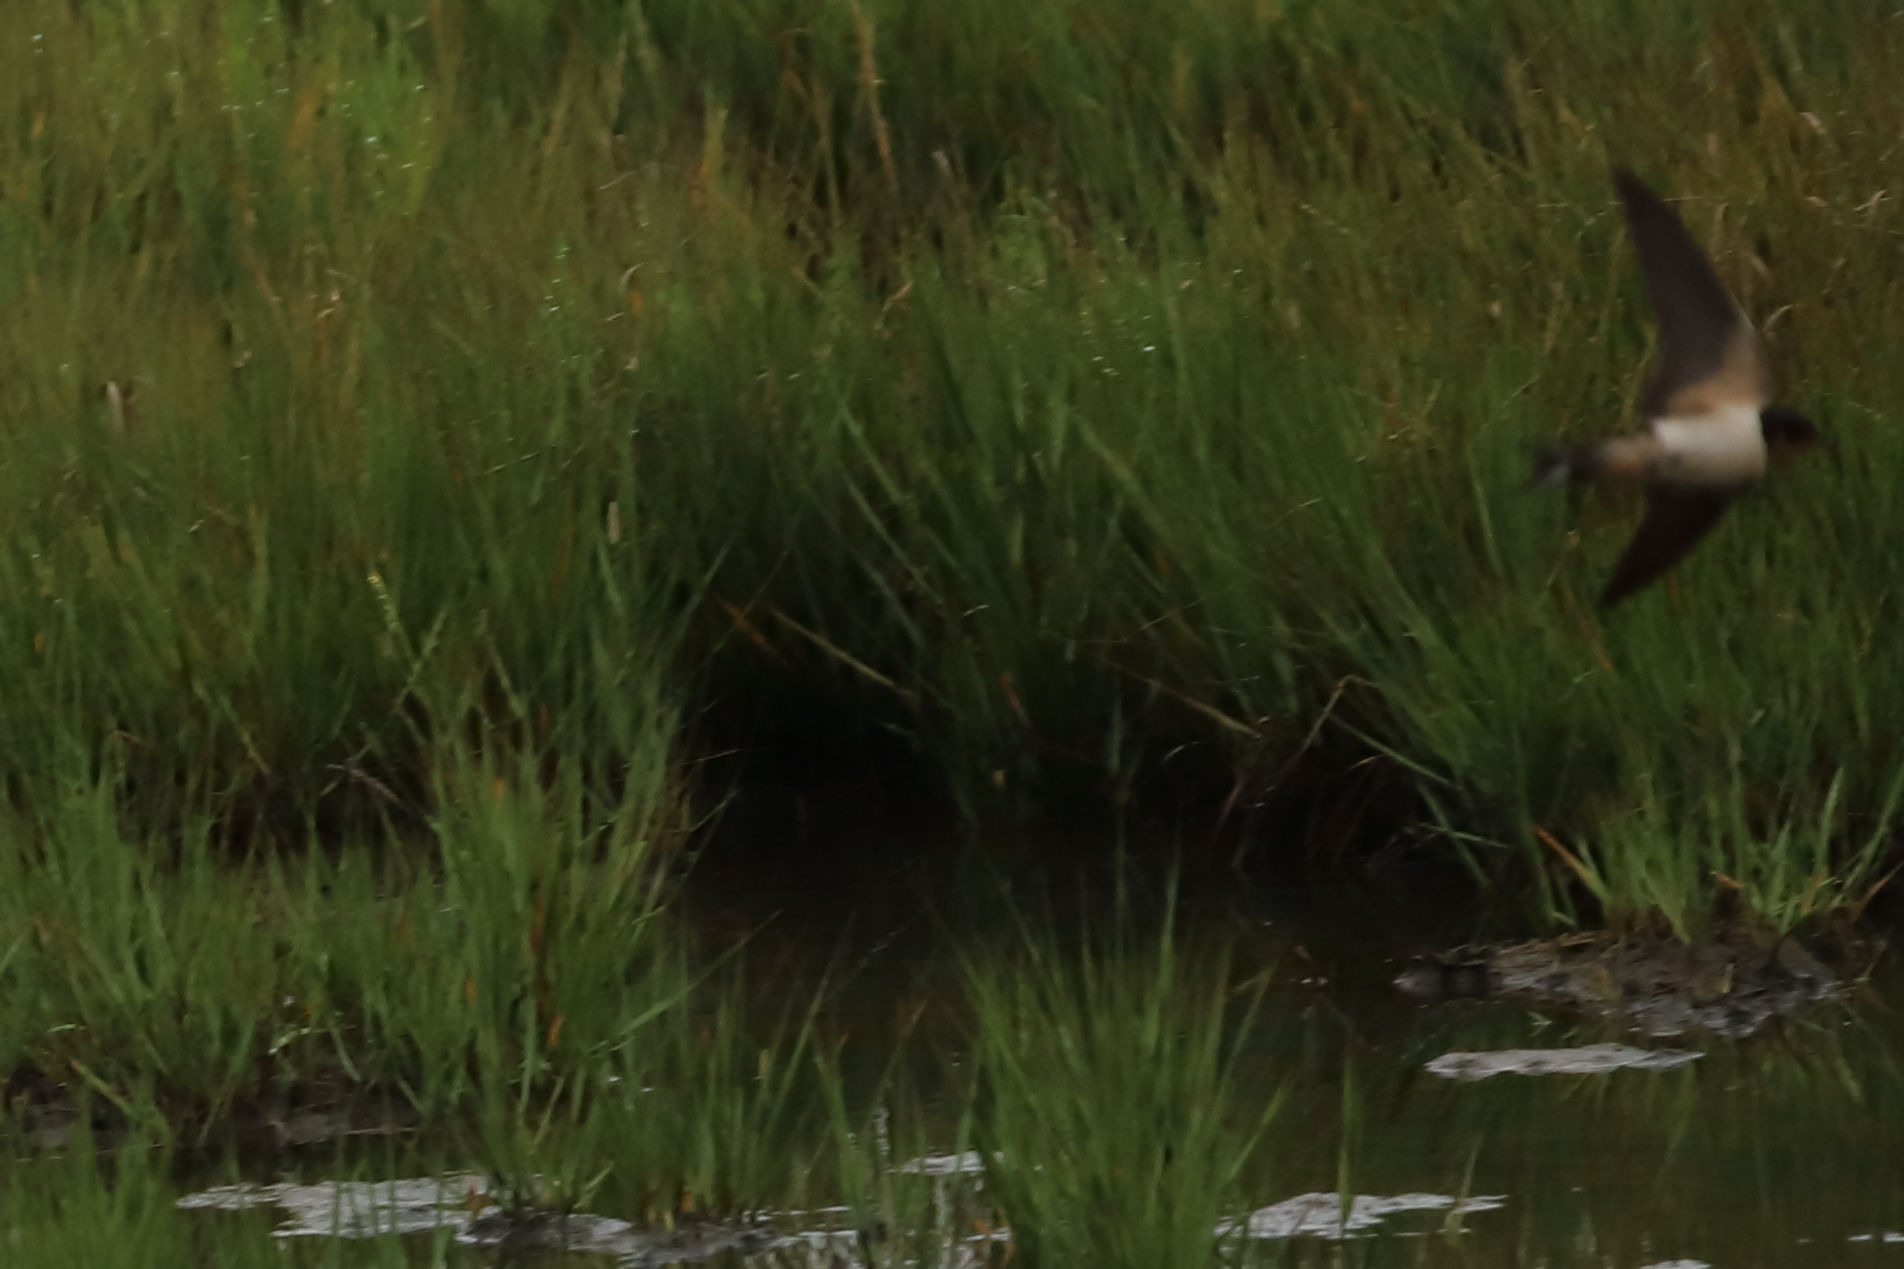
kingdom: Animalia
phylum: Chordata
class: Aves
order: Passeriformes
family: Hirundinidae
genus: Hirundo
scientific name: Hirundo rustica
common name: Barn swallow
